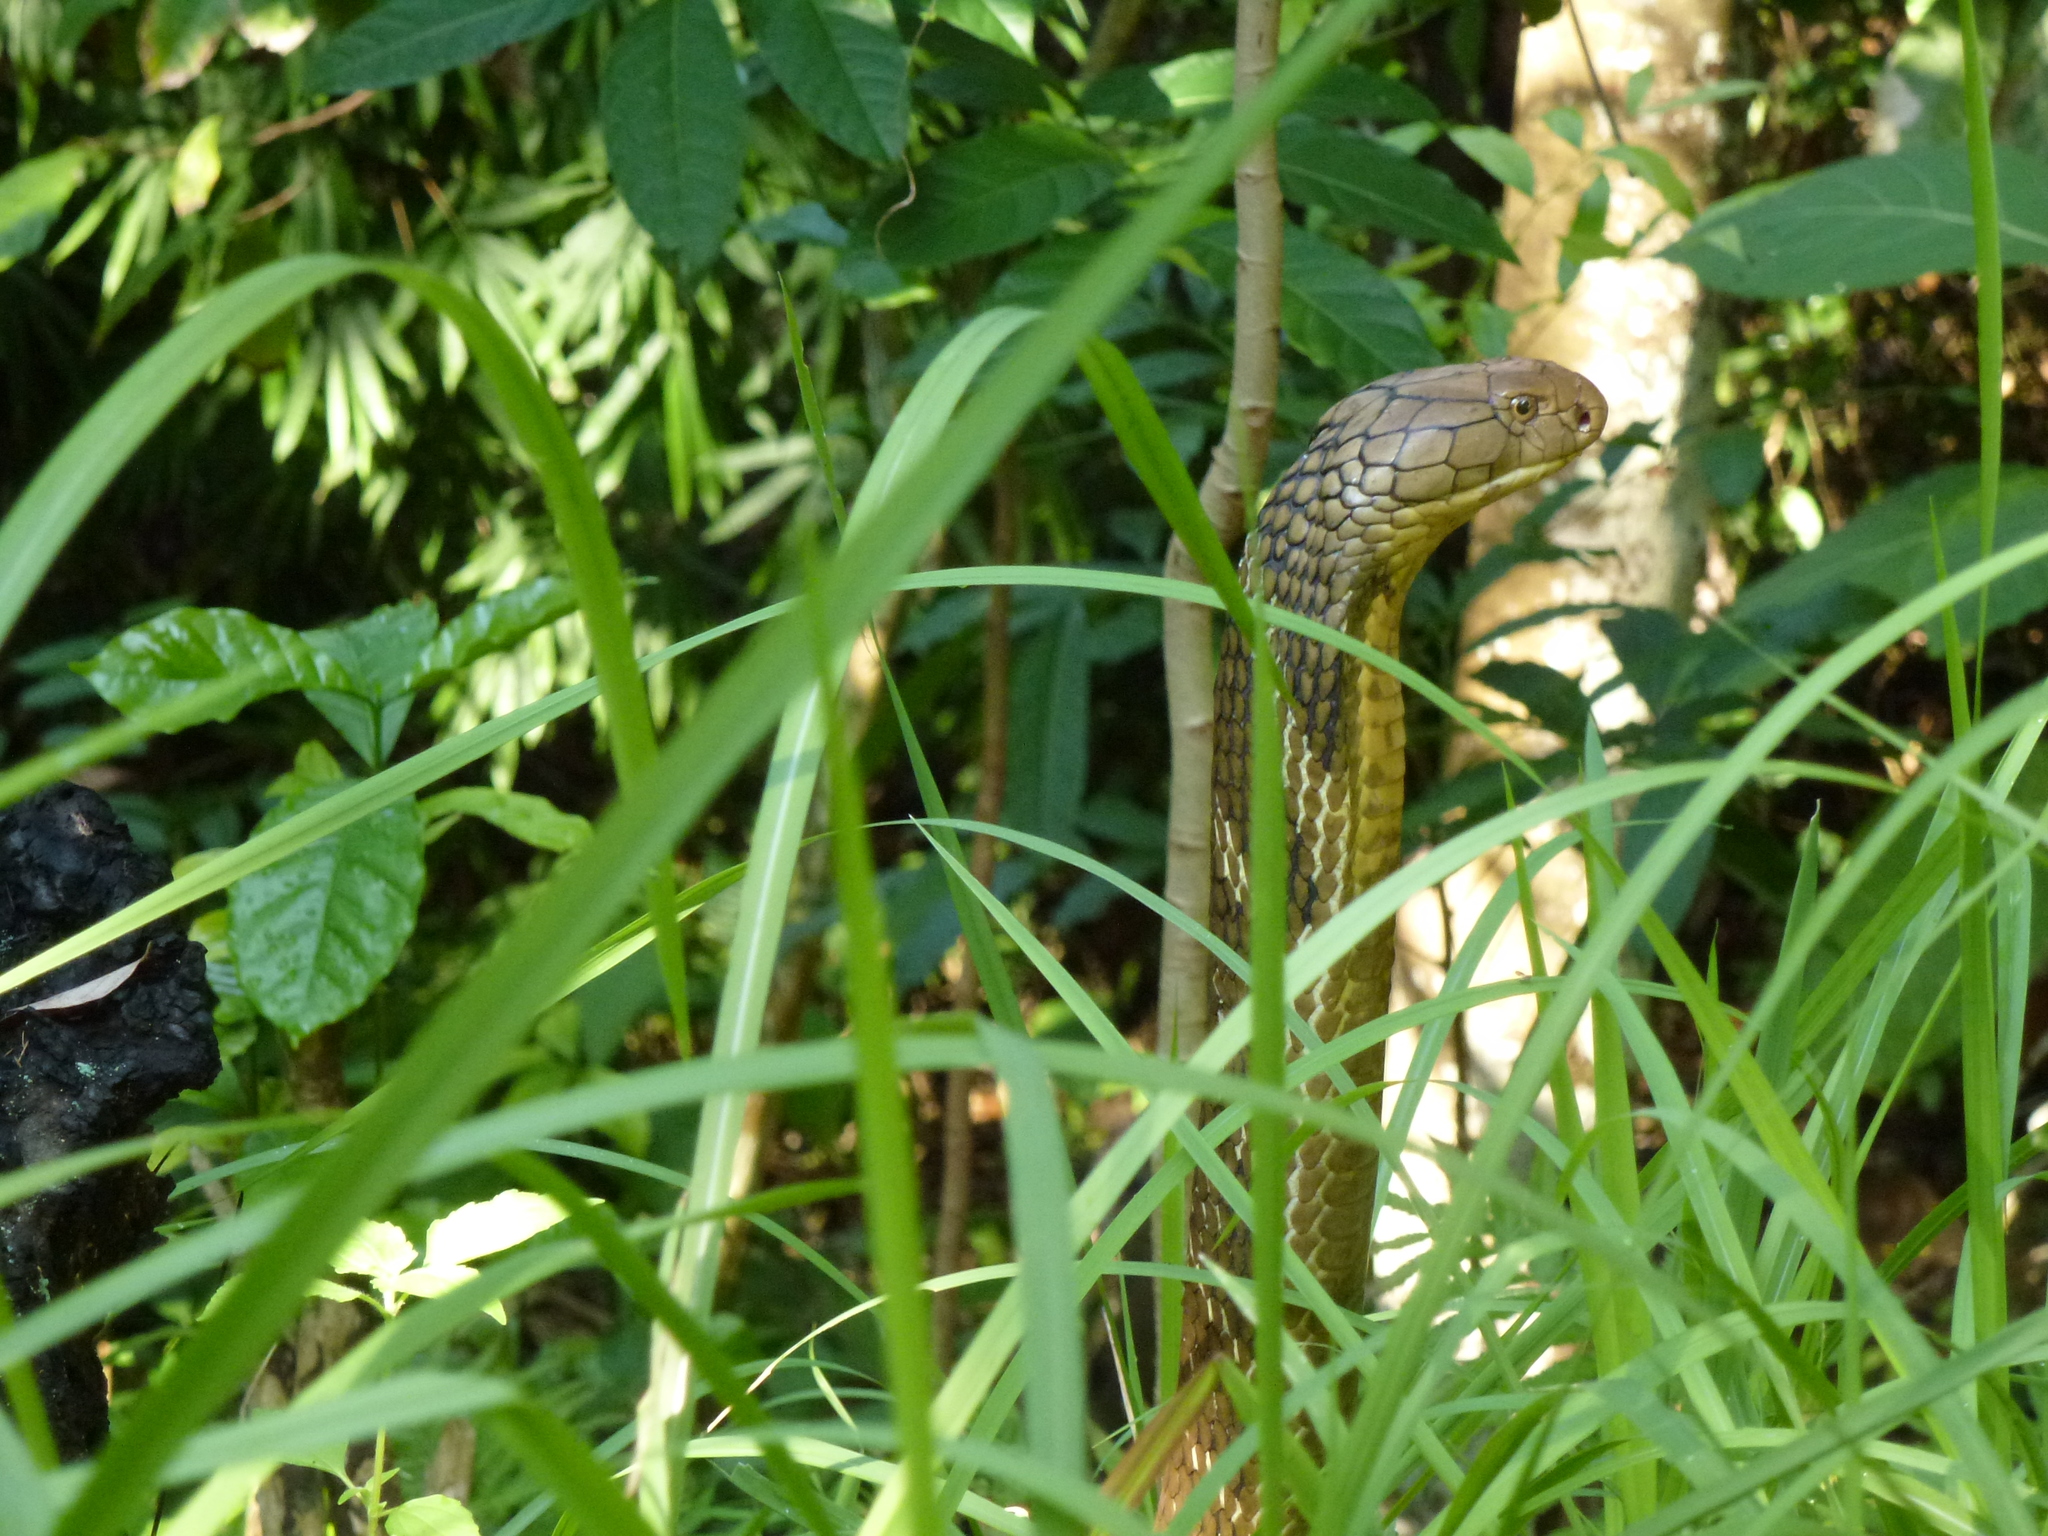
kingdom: Animalia
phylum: Chordata
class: Squamata
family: Elapidae
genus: Ophiophagus
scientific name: Ophiophagus hannah
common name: Hamadryad
